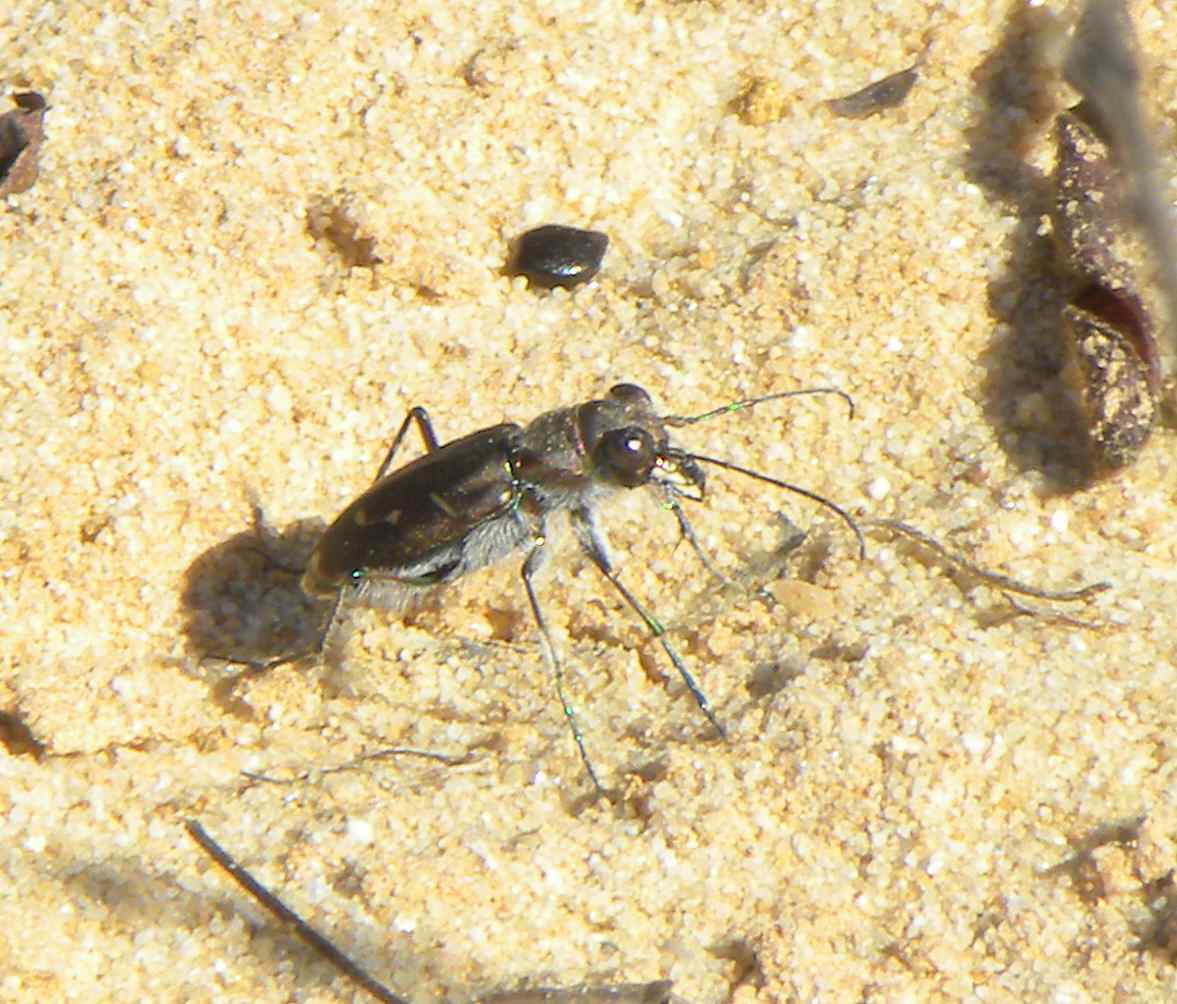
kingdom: Animalia
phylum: Arthropoda
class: Insecta
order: Coleoptera
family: Carabidae
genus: Cicindela
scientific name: Cicindela tranquebarica
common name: Oblique-lined tiger beetle
